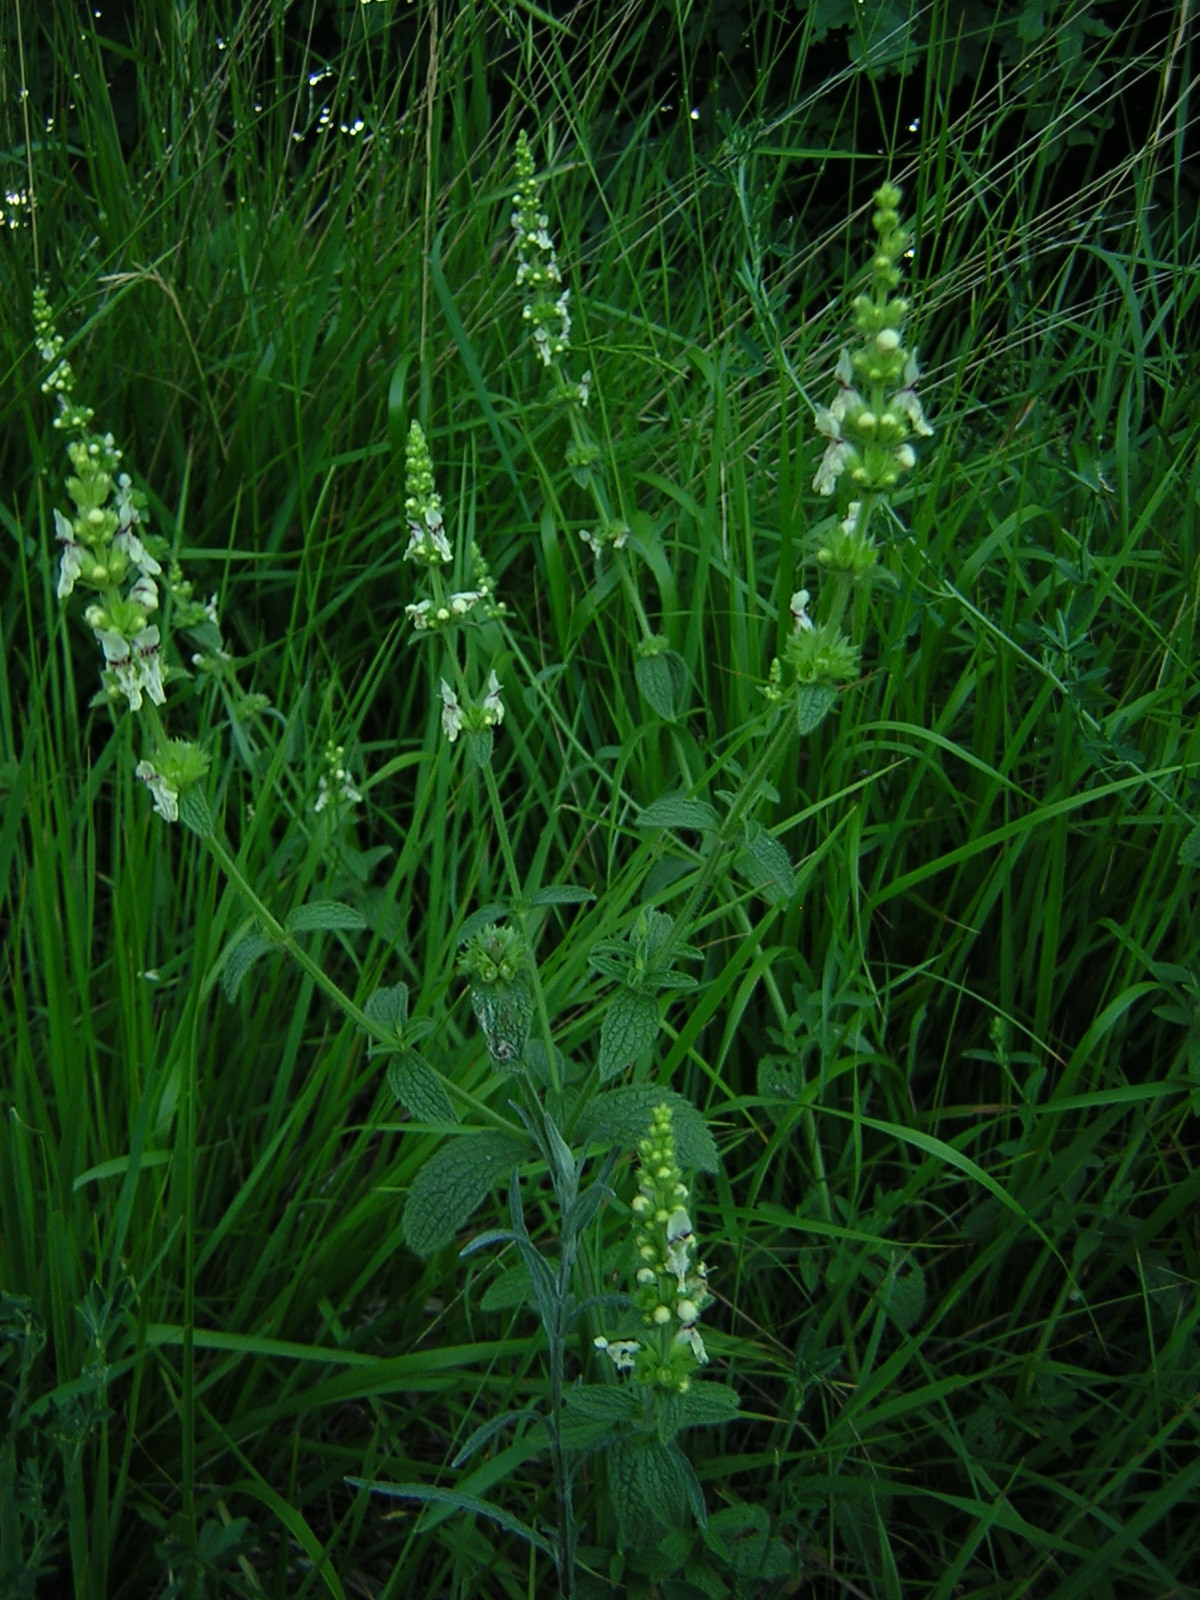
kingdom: Plantae
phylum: Tracheophyta
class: Magnoliopsida
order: Lamiales
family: Lamiaceae
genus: Stachys
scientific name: Stachys recta
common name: Perennial yellow-woundwort
